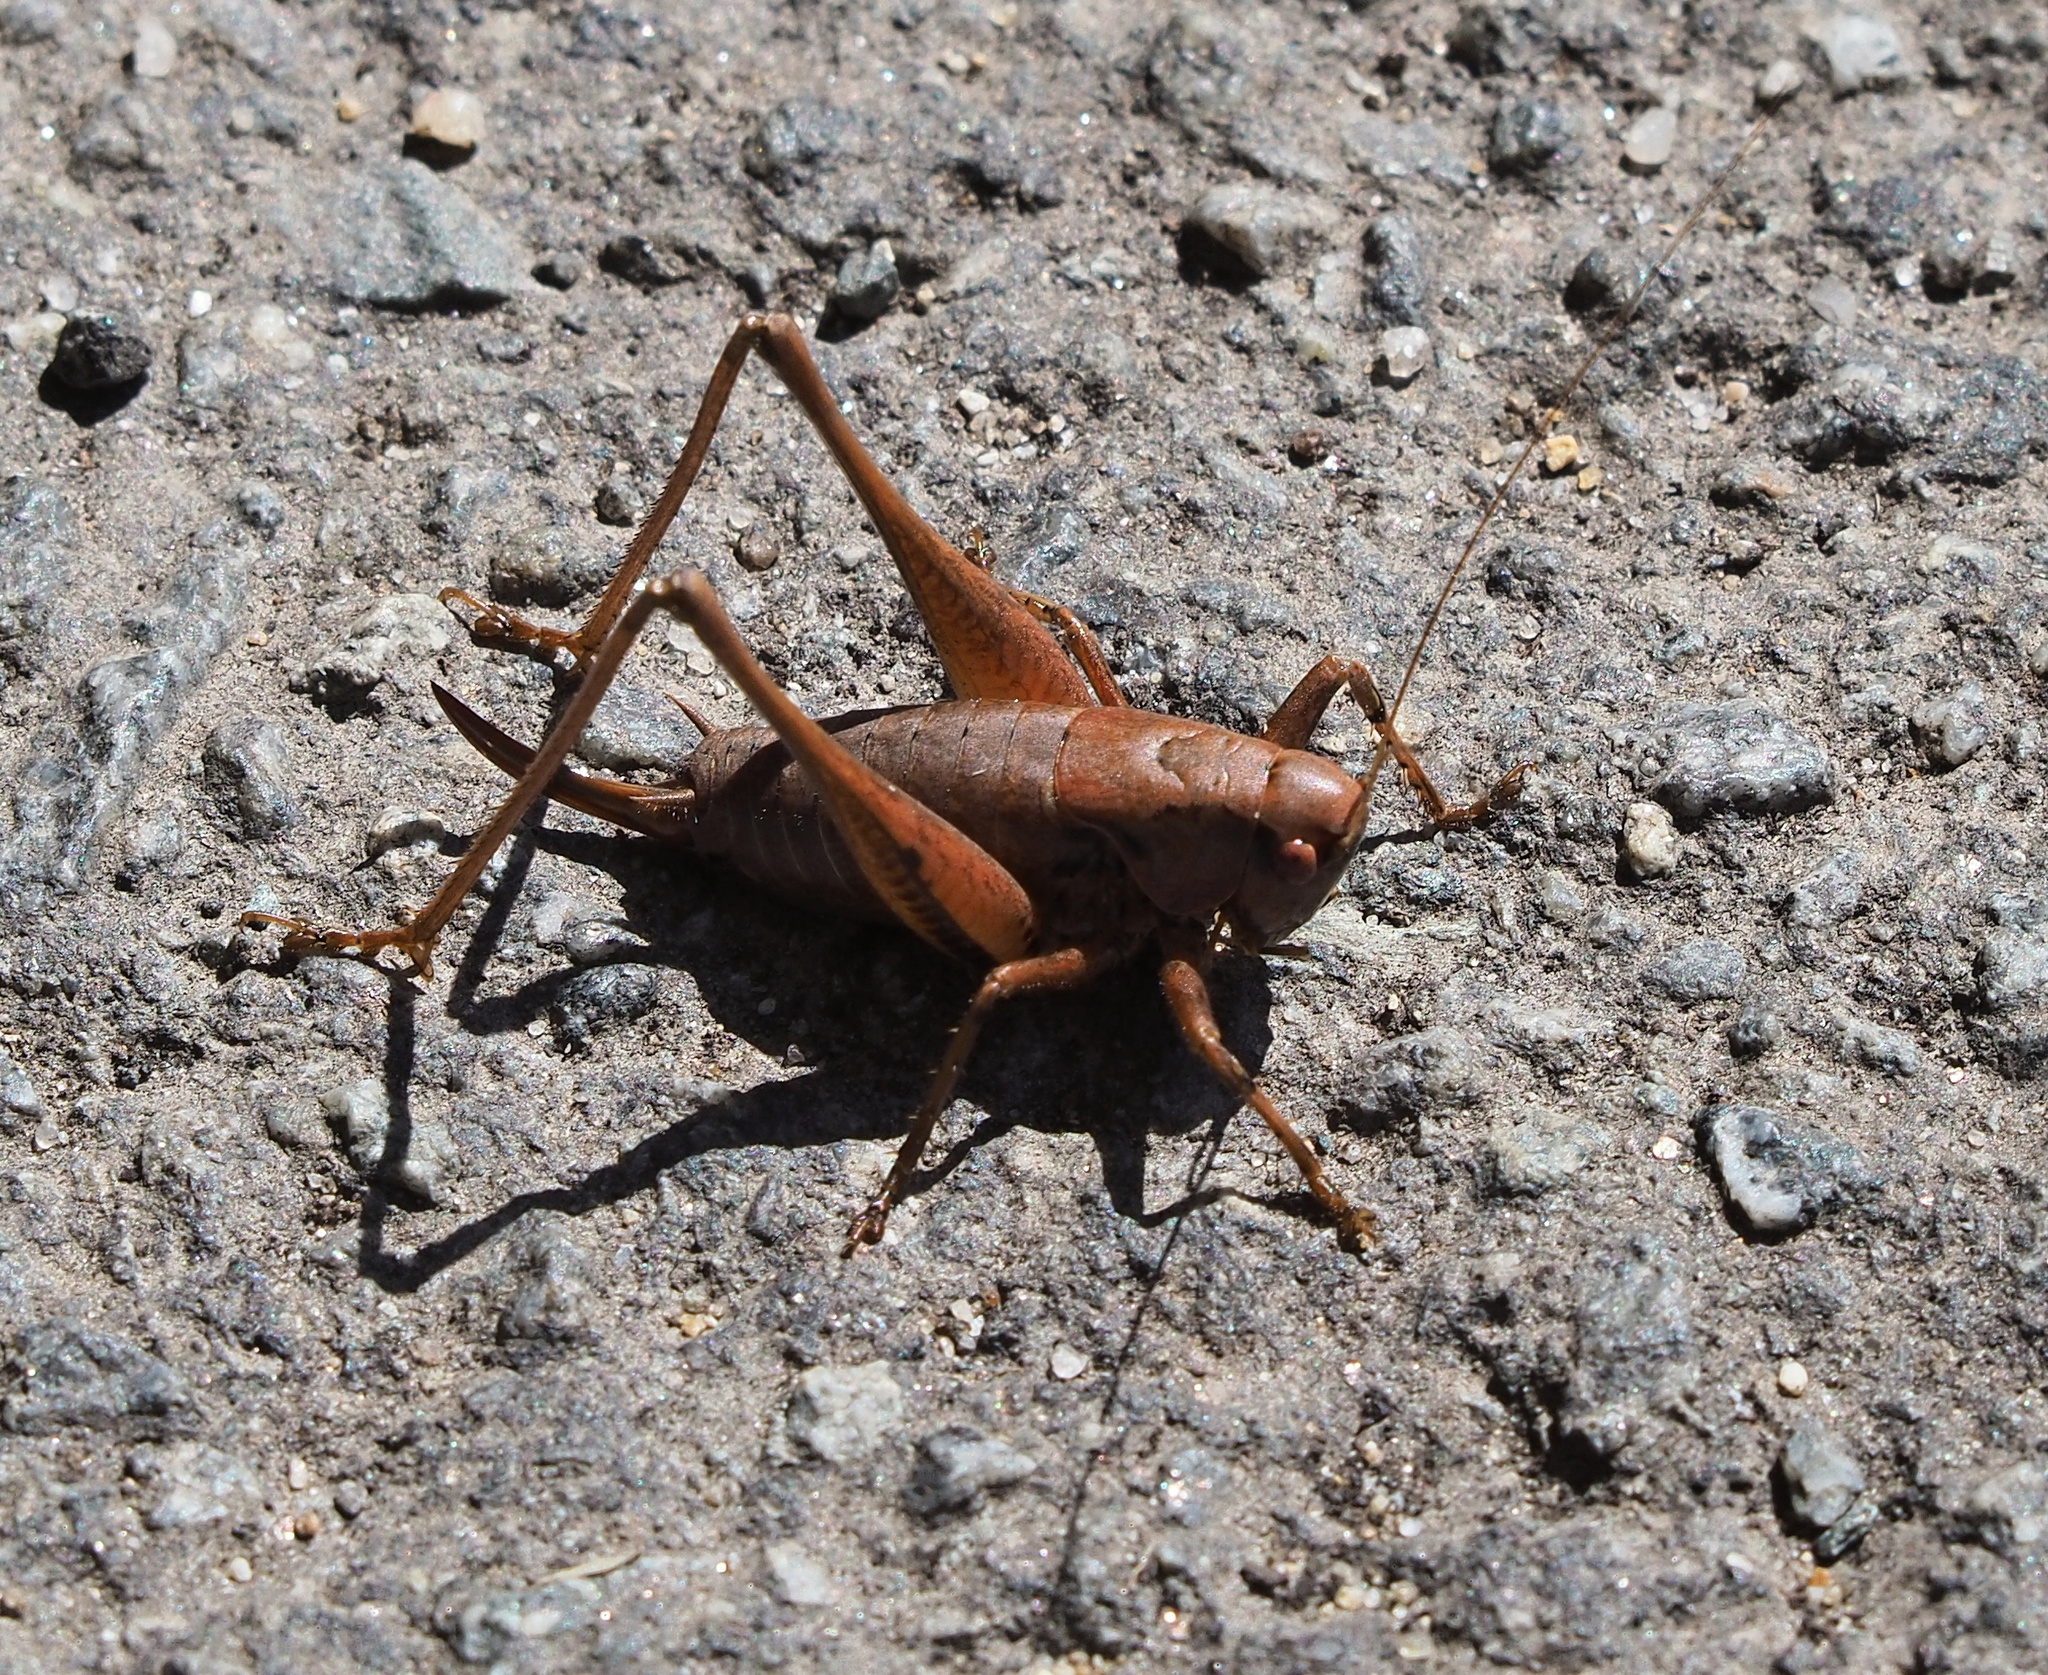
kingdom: Animalia
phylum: Arthropoda
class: Insecta
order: Orthoptera
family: Tettigoniidae
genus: Pholidoptera
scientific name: Pholidoptera griseoaptera
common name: Dark bush-cricket
